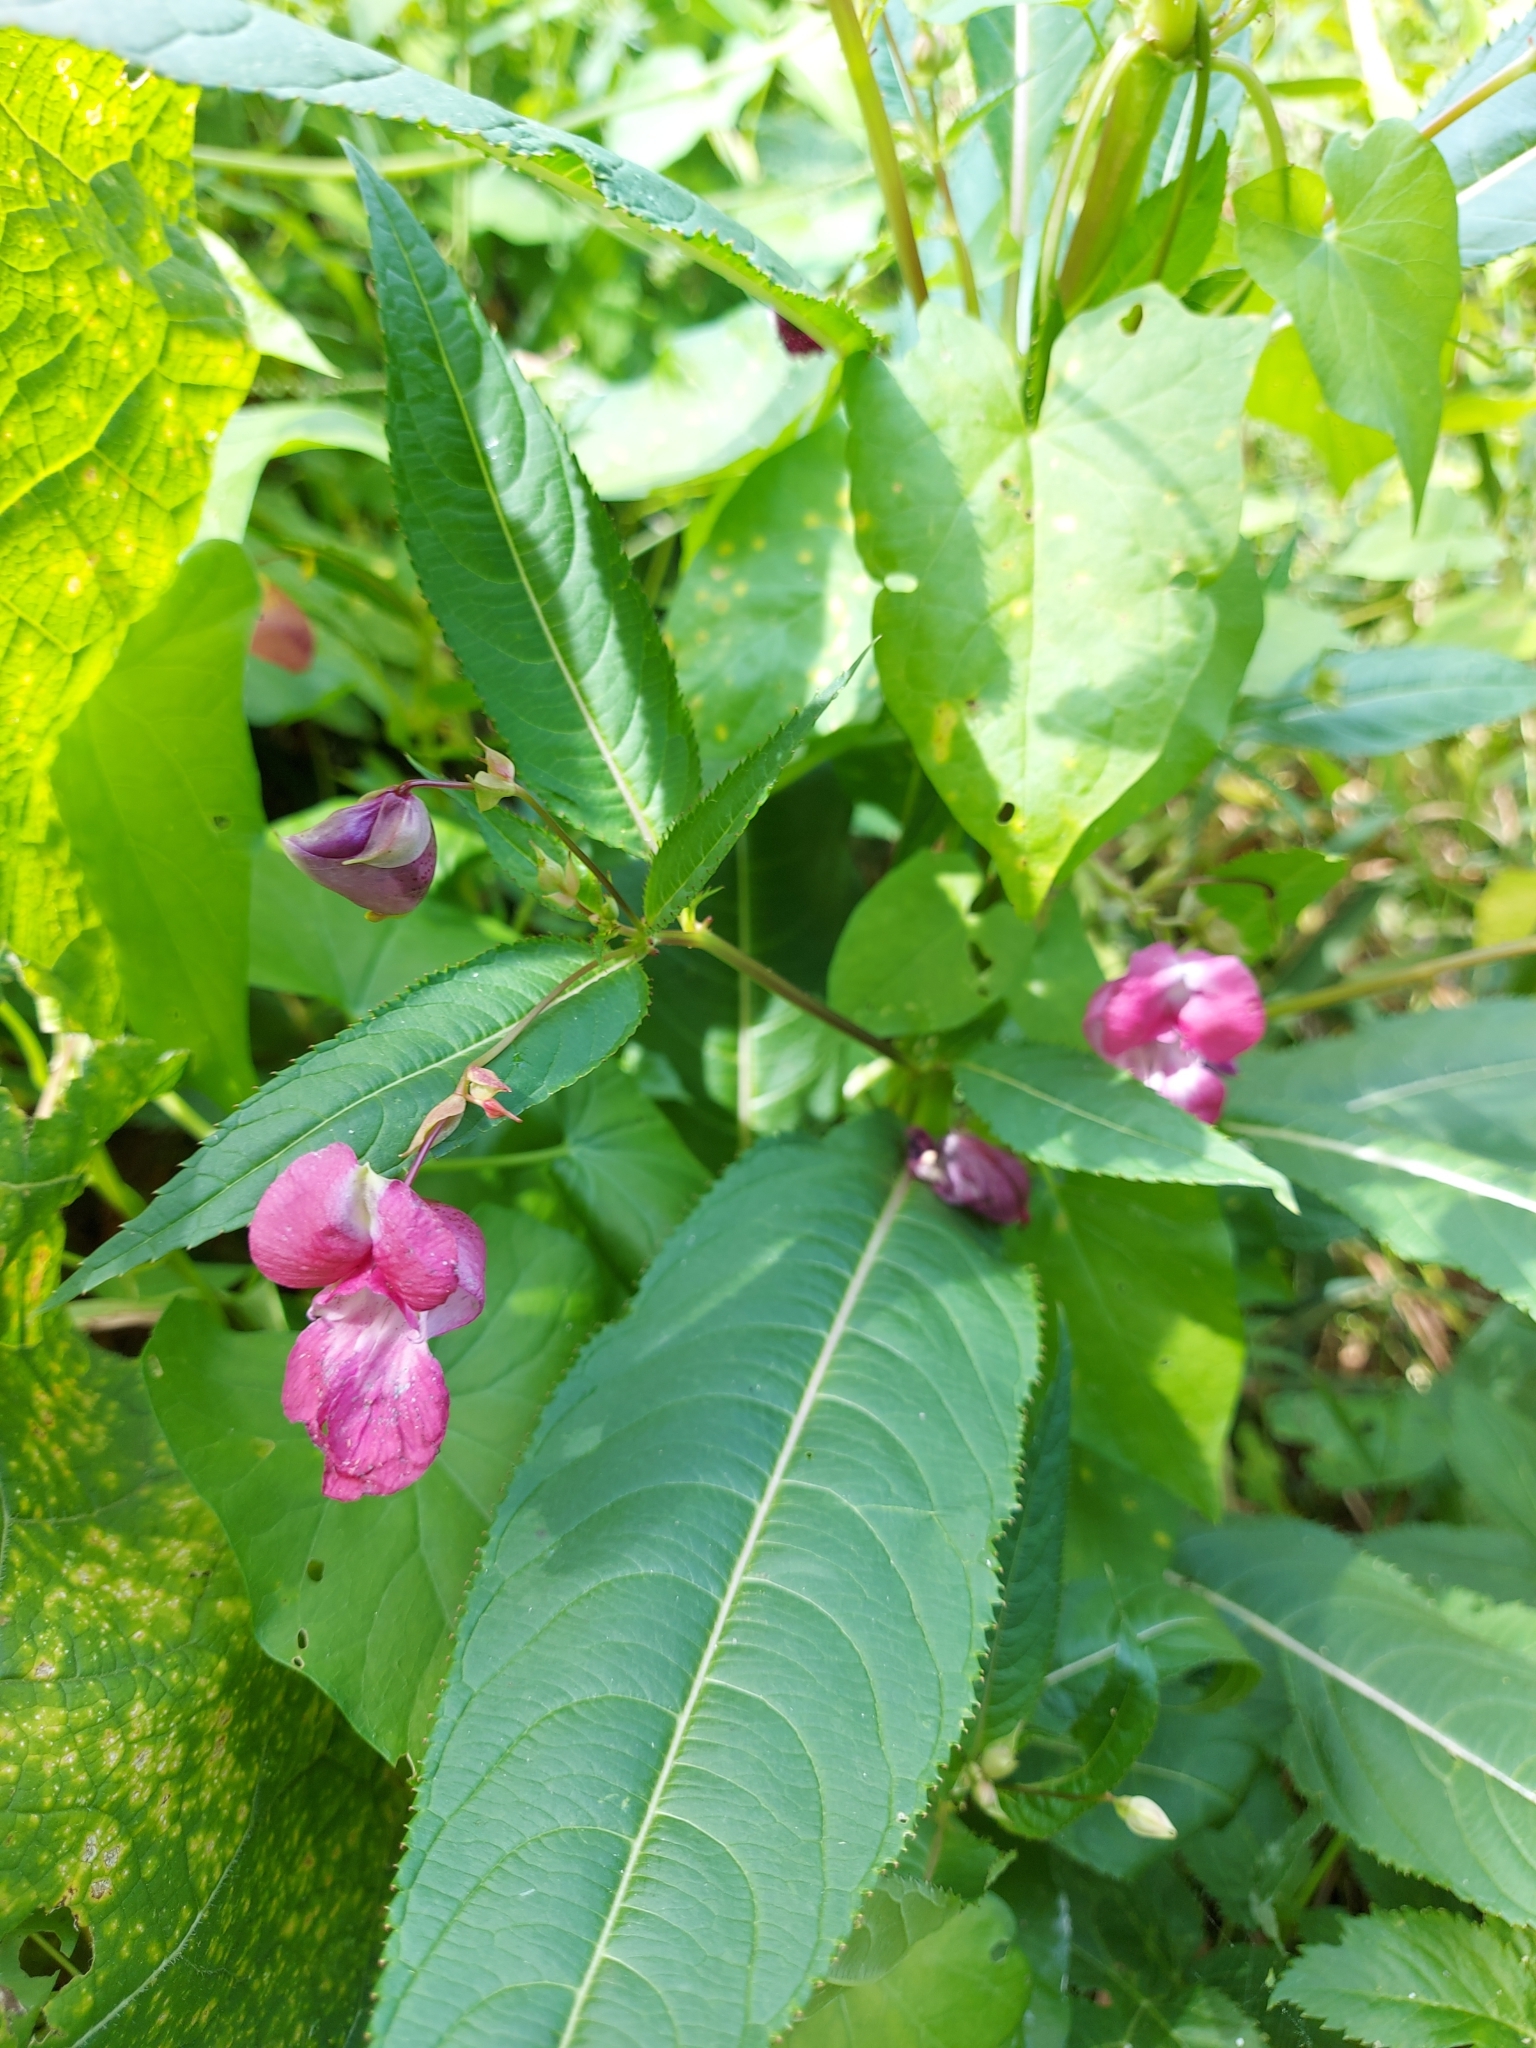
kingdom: Plantae
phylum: Tracheophyta
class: Magnoliopsida
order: Ericales
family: Balsaminaceae
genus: Impatiens
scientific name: Impatiens glandulifera
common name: Himalayan balsam
